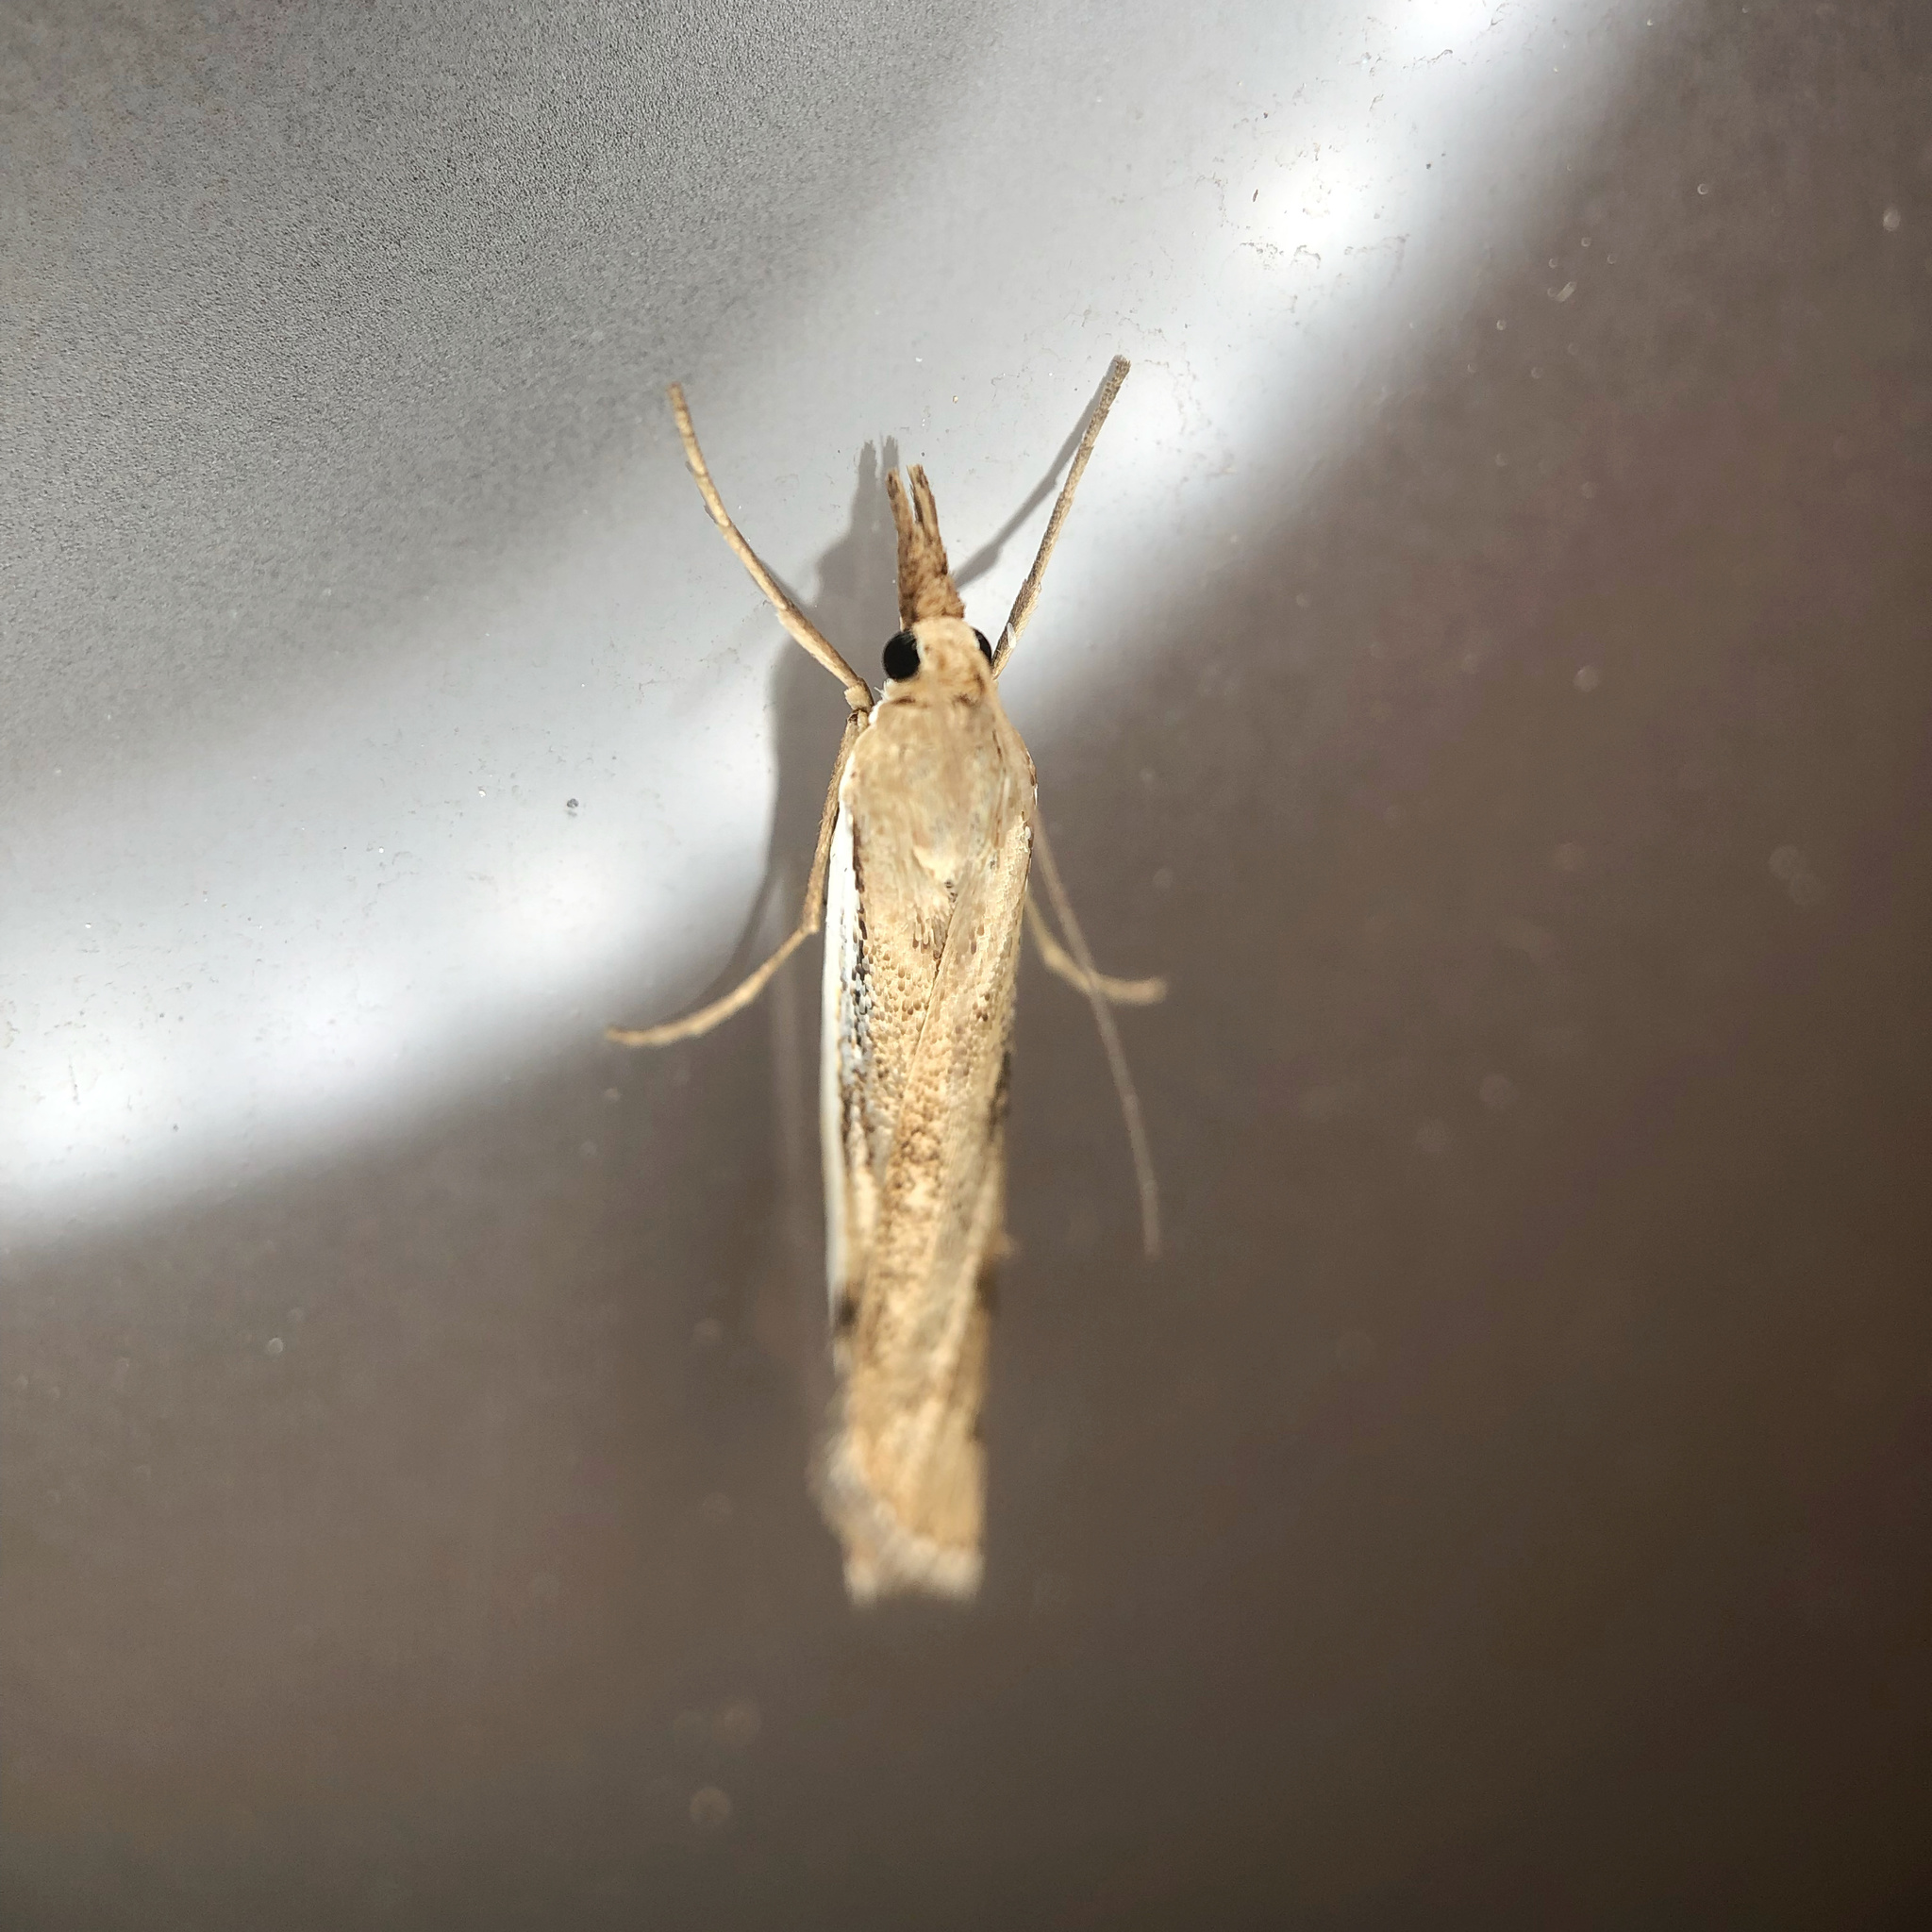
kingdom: Animalia
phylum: Arthropoda
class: Insecta
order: Lepidoptera
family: Crambidae
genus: Orocrambus
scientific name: Orocrambus flexuosellus
